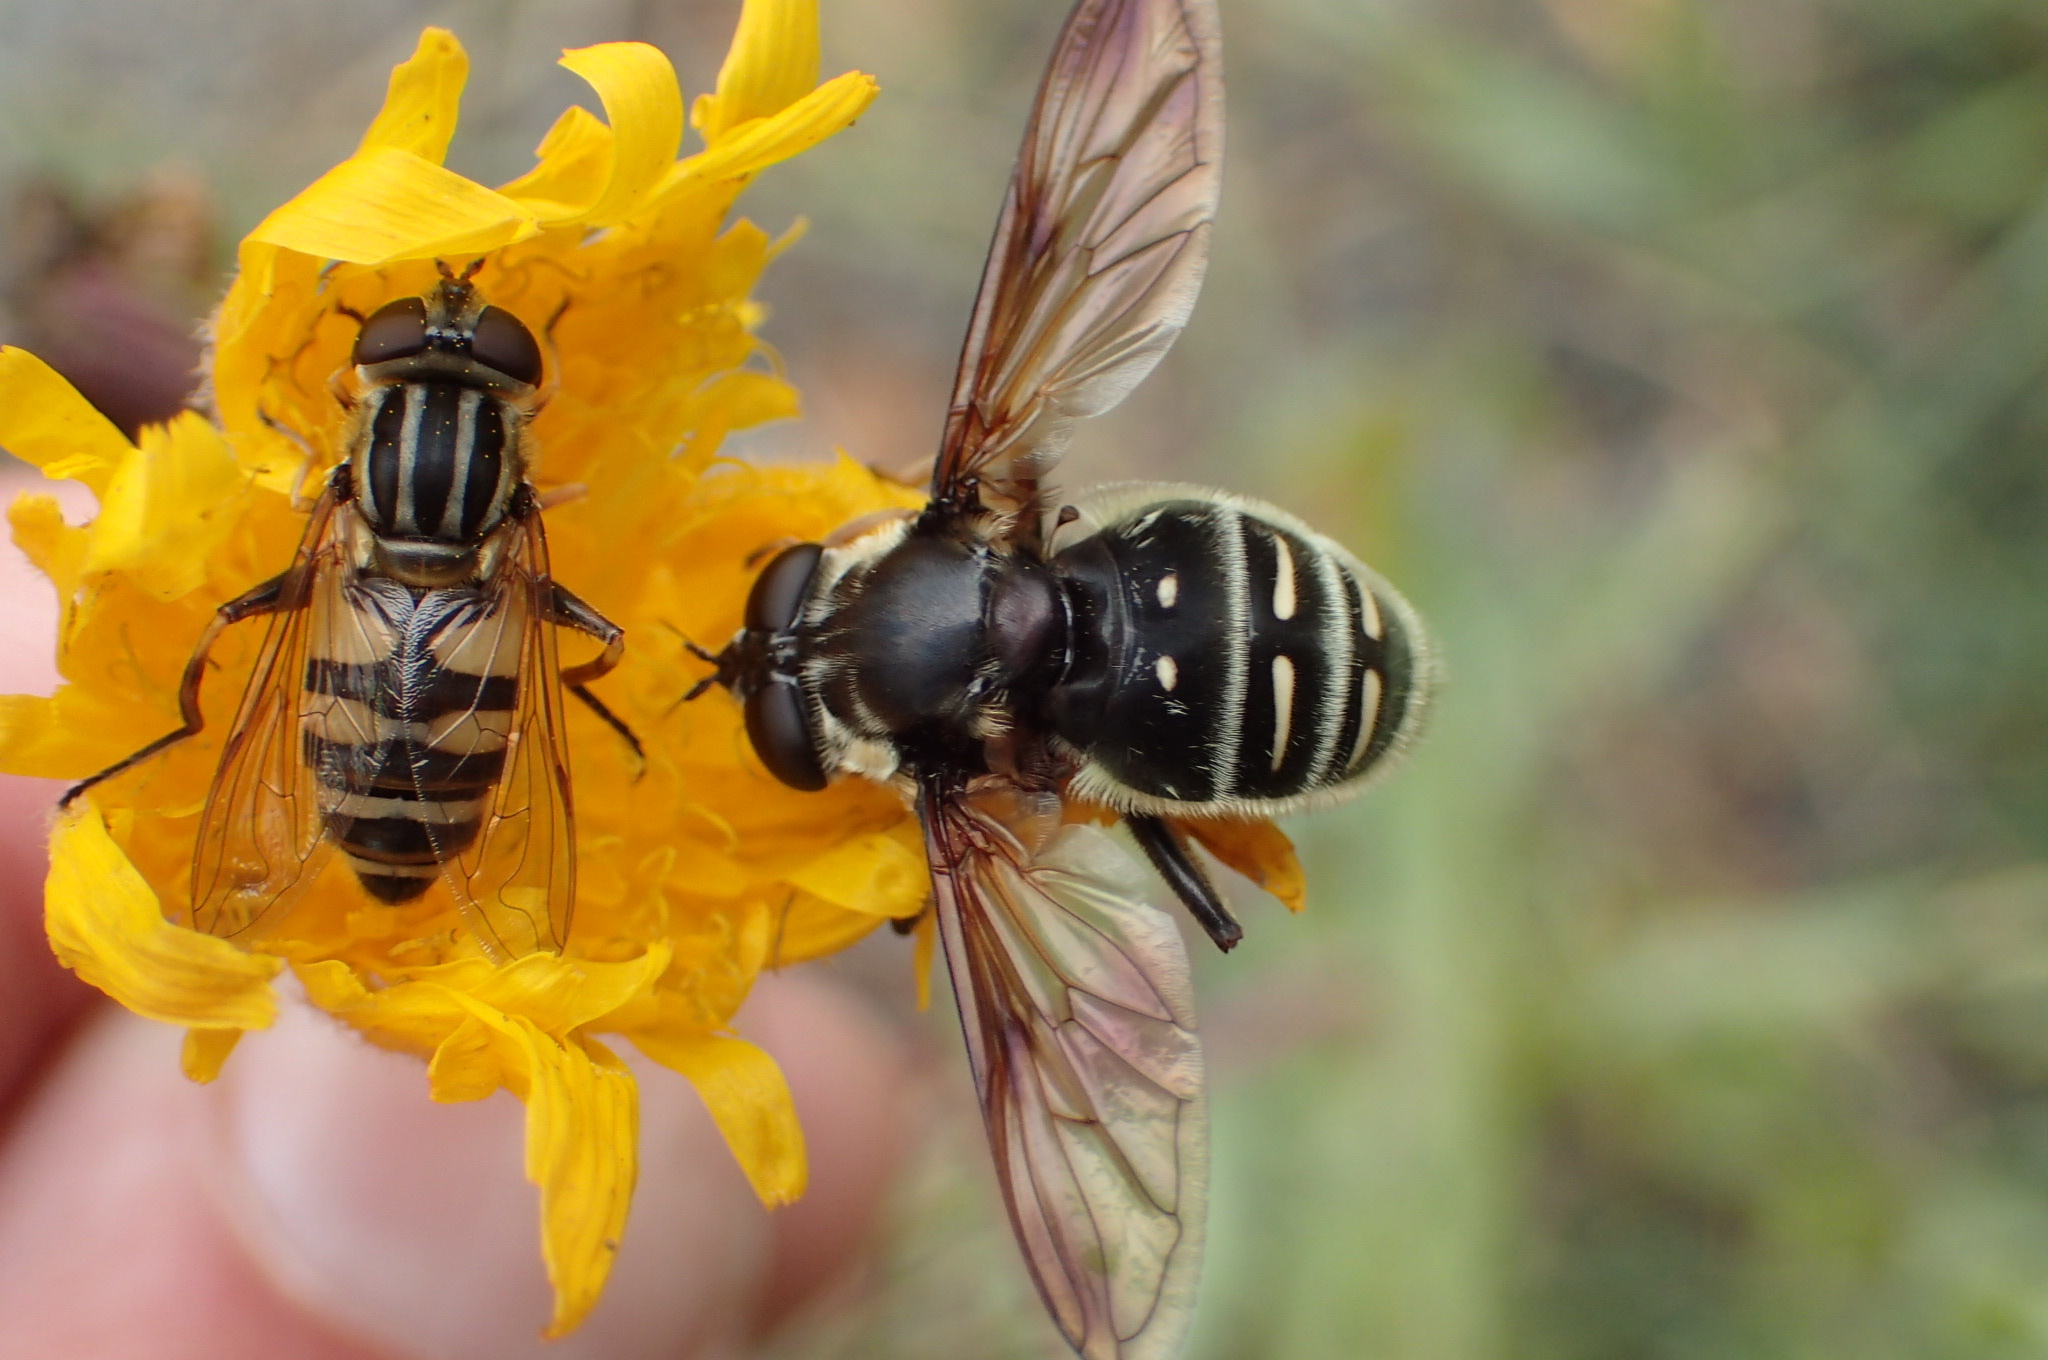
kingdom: Animalia
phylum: Arthropoda
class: Insecta
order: Diptera
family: Syrphidae
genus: Sericomyia
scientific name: Sericomyia militaris
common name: Narrow-banded pond fly
